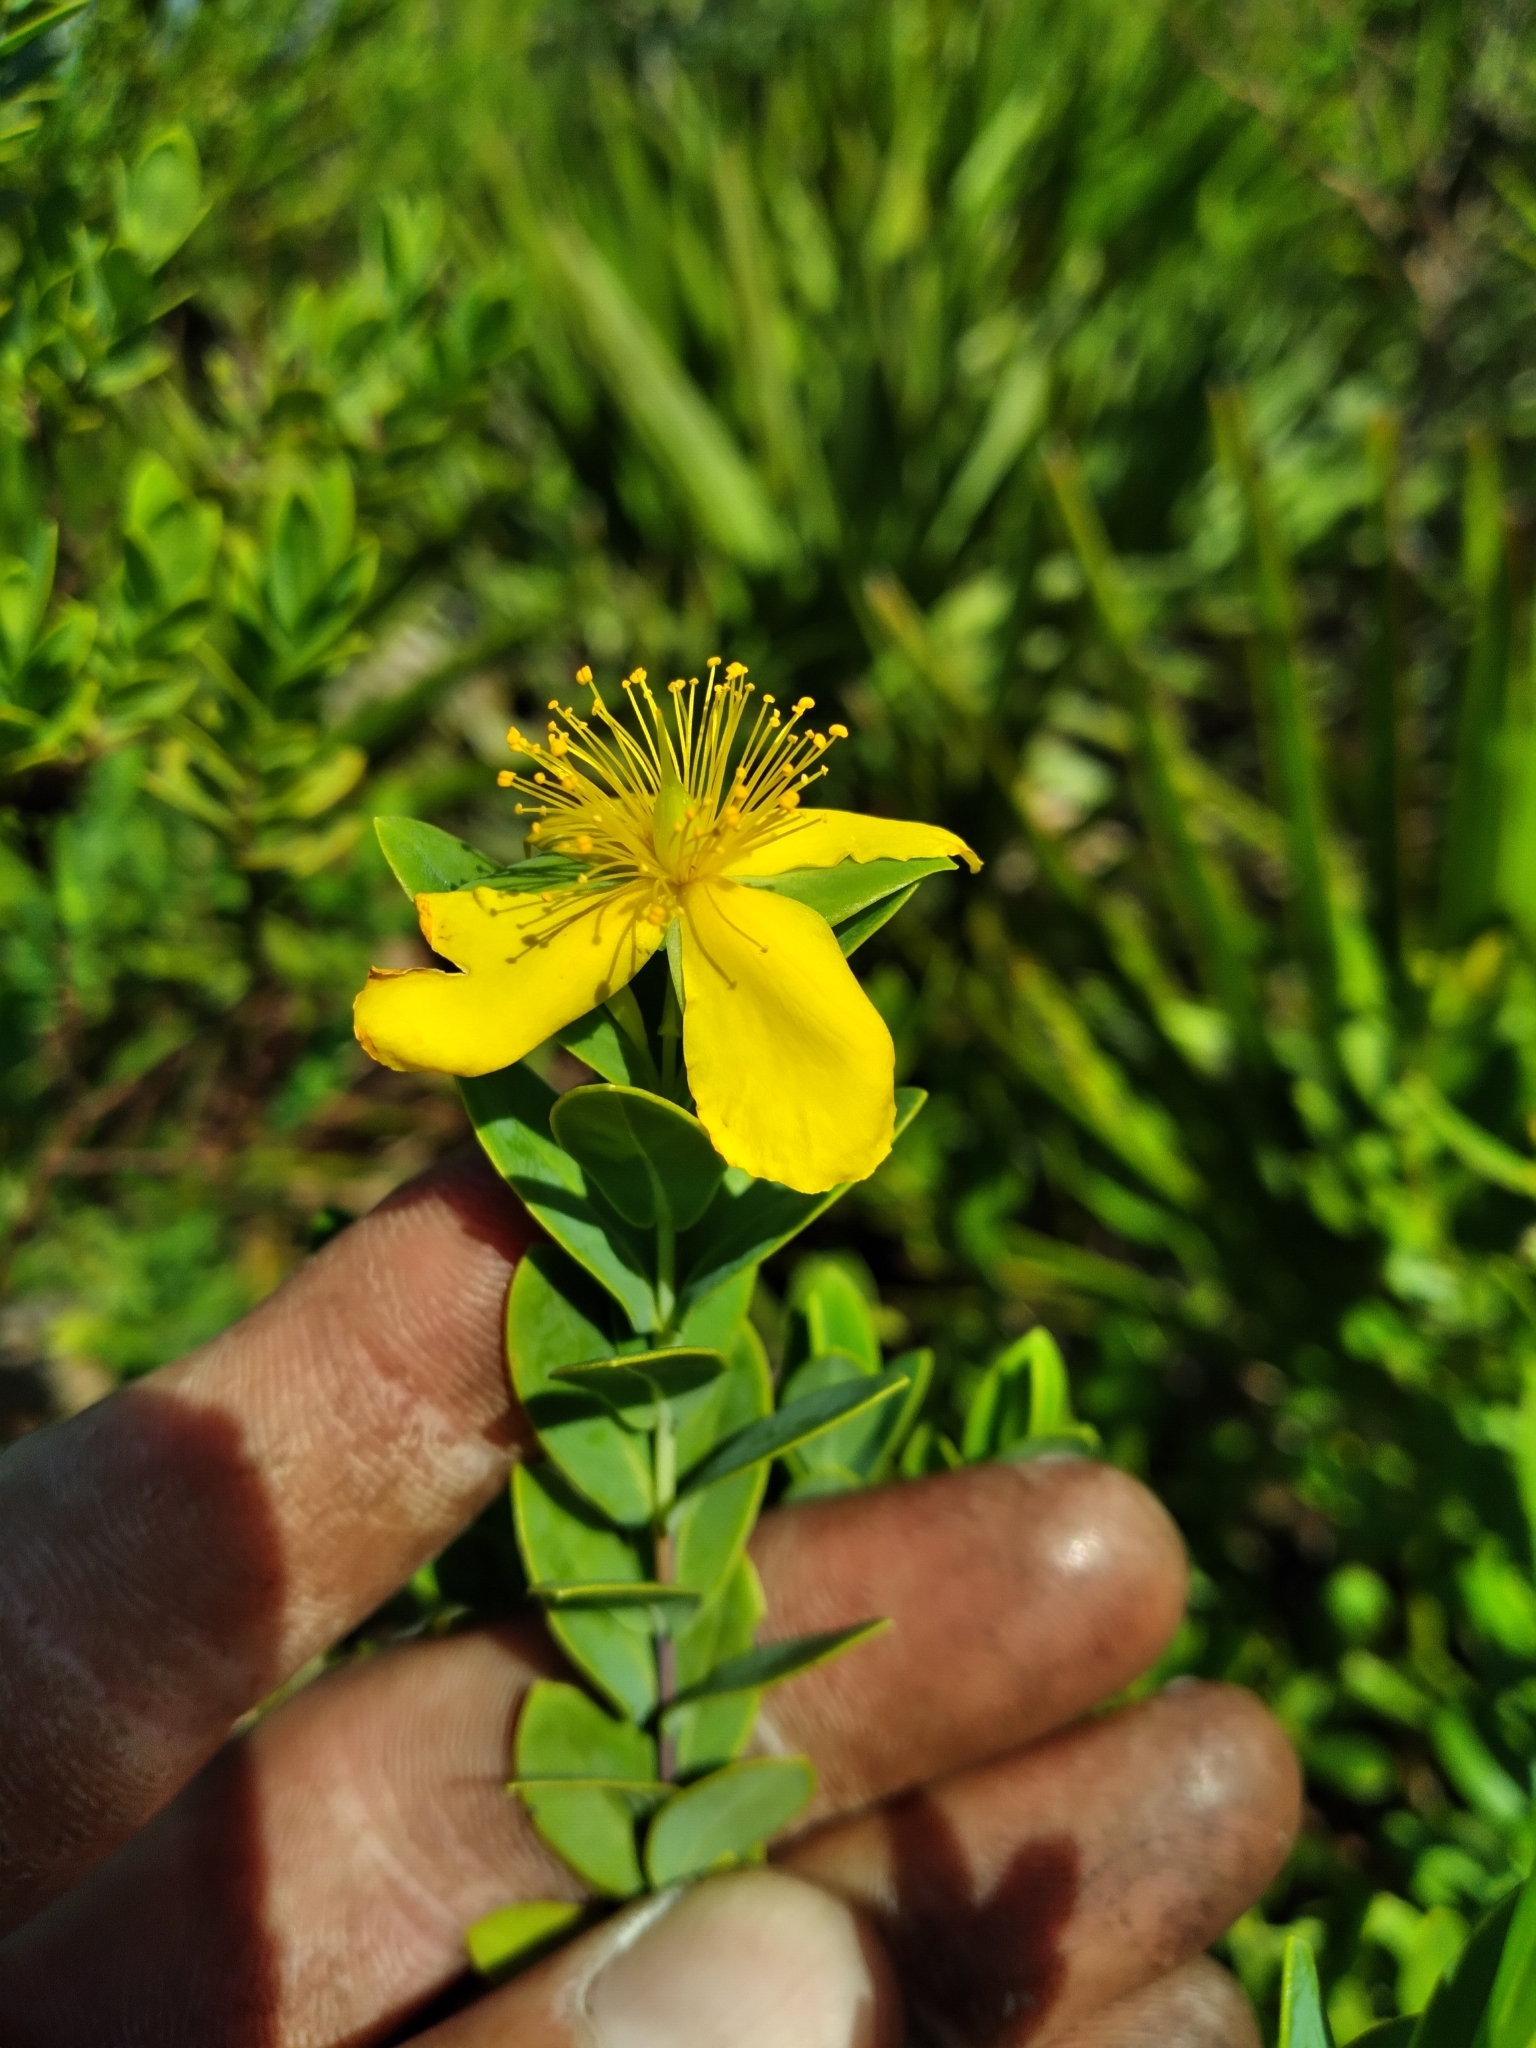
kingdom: Plantae
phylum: Tracheophyta
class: Magnoliopsida
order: Malpighiales
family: Hypericaceae
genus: Hypericum
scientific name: Hypericum edisonianum
